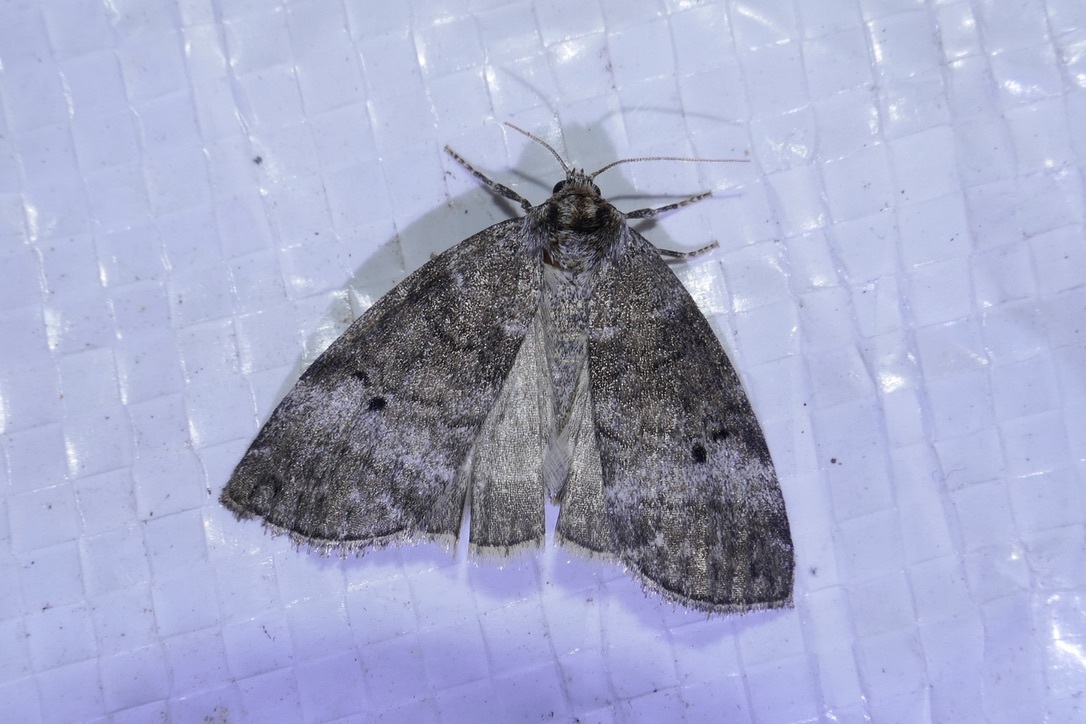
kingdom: Animalia
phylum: Arthropoda
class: Insecta
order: Lepidoptera
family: Drepanidae
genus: Ochropacha
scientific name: Ochropacha duplaris
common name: Common lutestring
